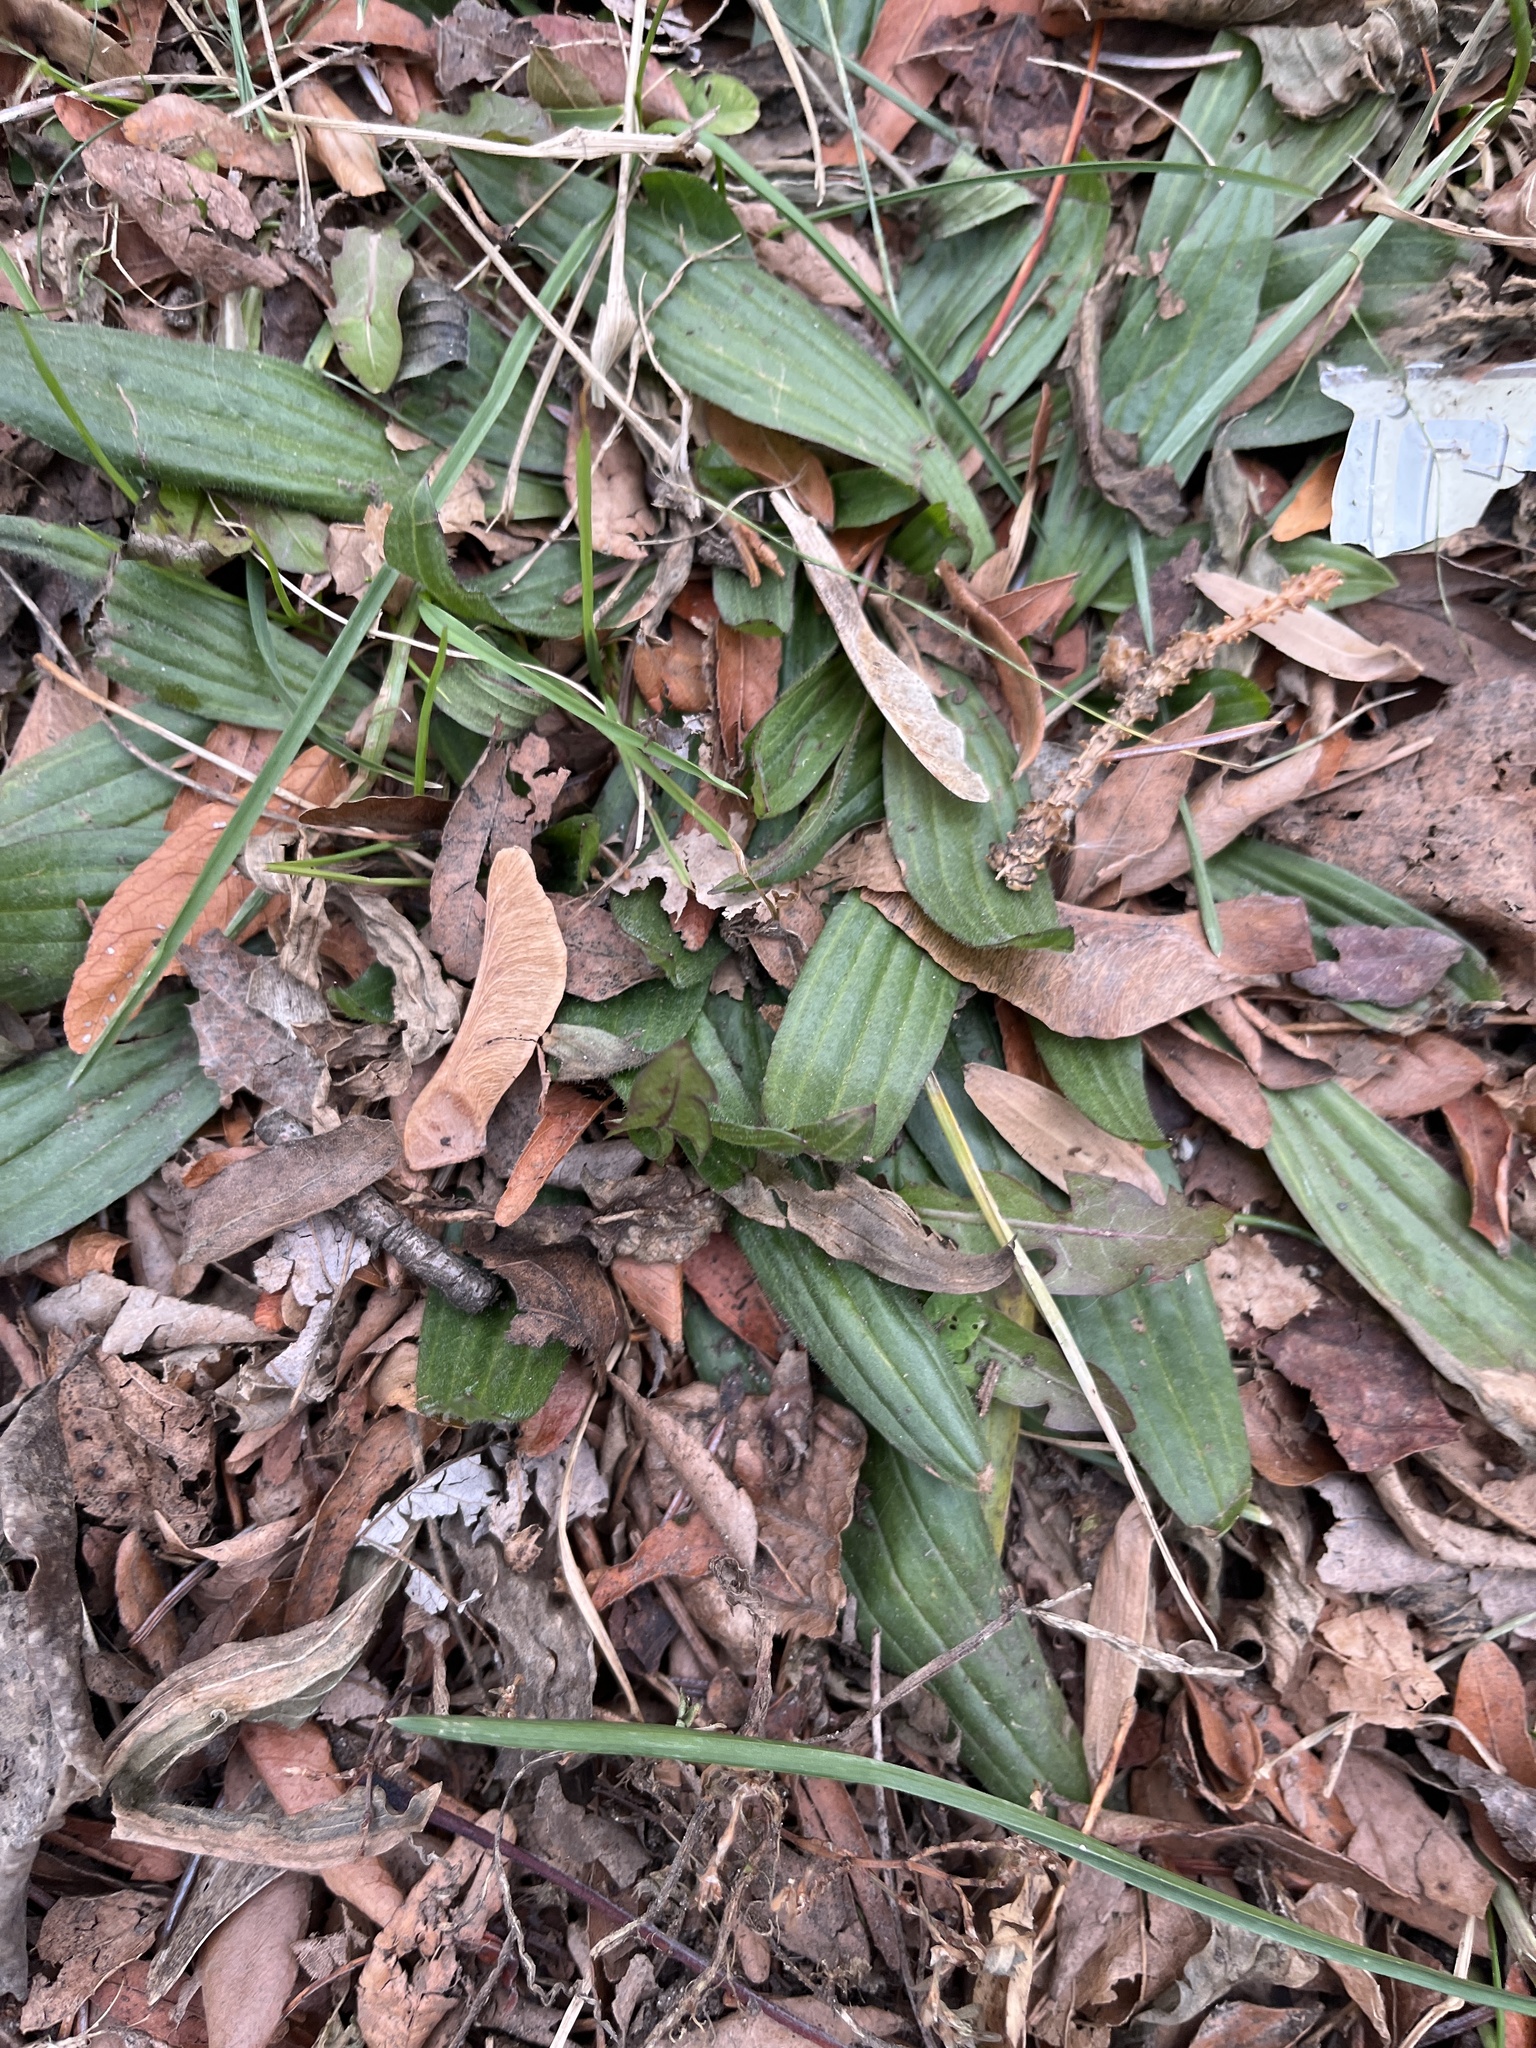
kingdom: Plantae
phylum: Tracheophyta
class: Magnoliopsida
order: Lamiales
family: Plantaginaceae
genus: Plantago
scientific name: Plantago lanceolata
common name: Ribwort plantain
